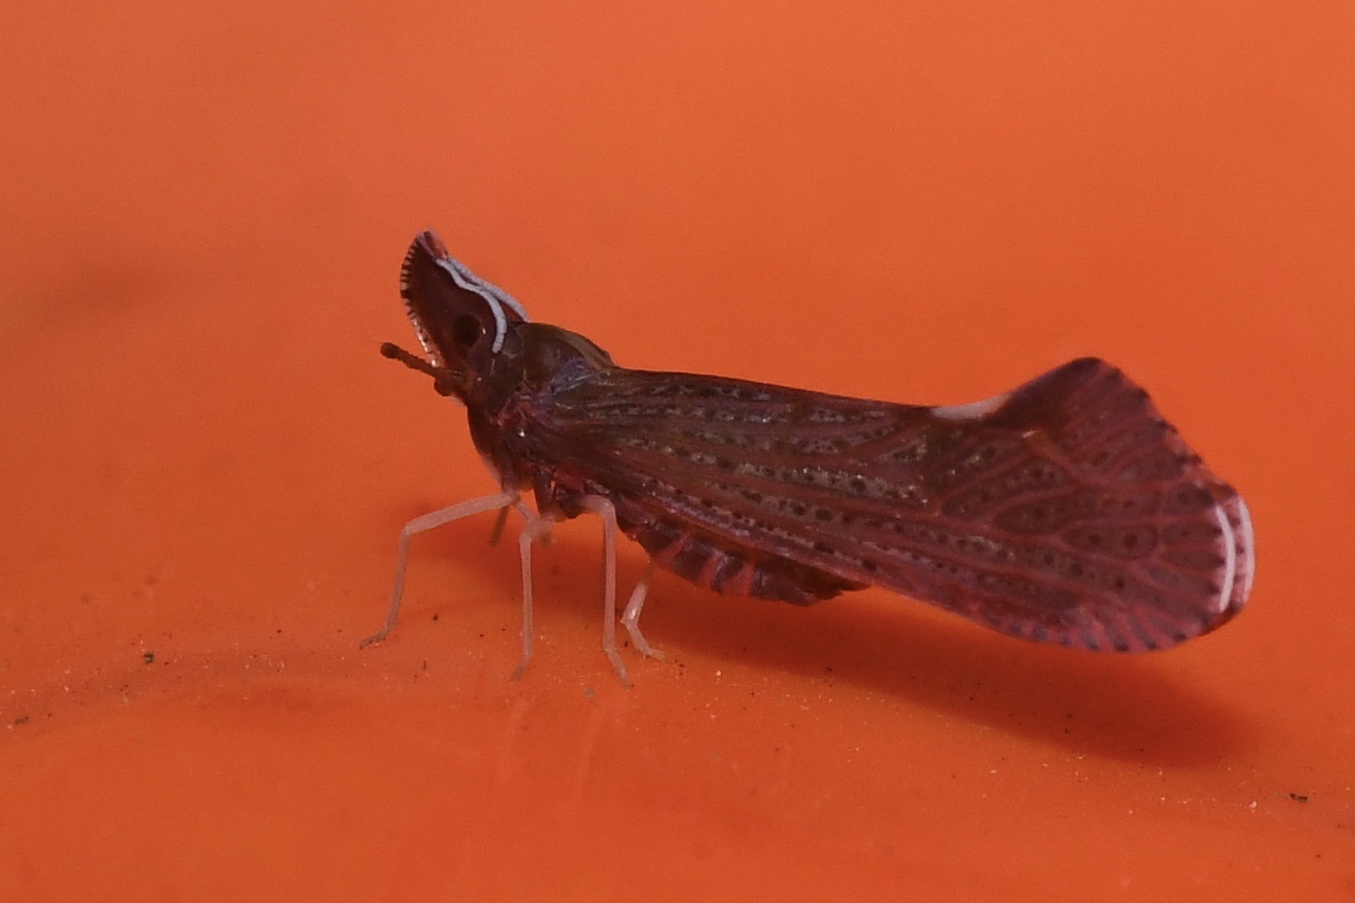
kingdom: Animalia
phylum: Arthropoda
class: Insecta
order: Hemiptera
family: Derbidae
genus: Apache
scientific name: Apache degeeri
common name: Red-fanned planthopper
